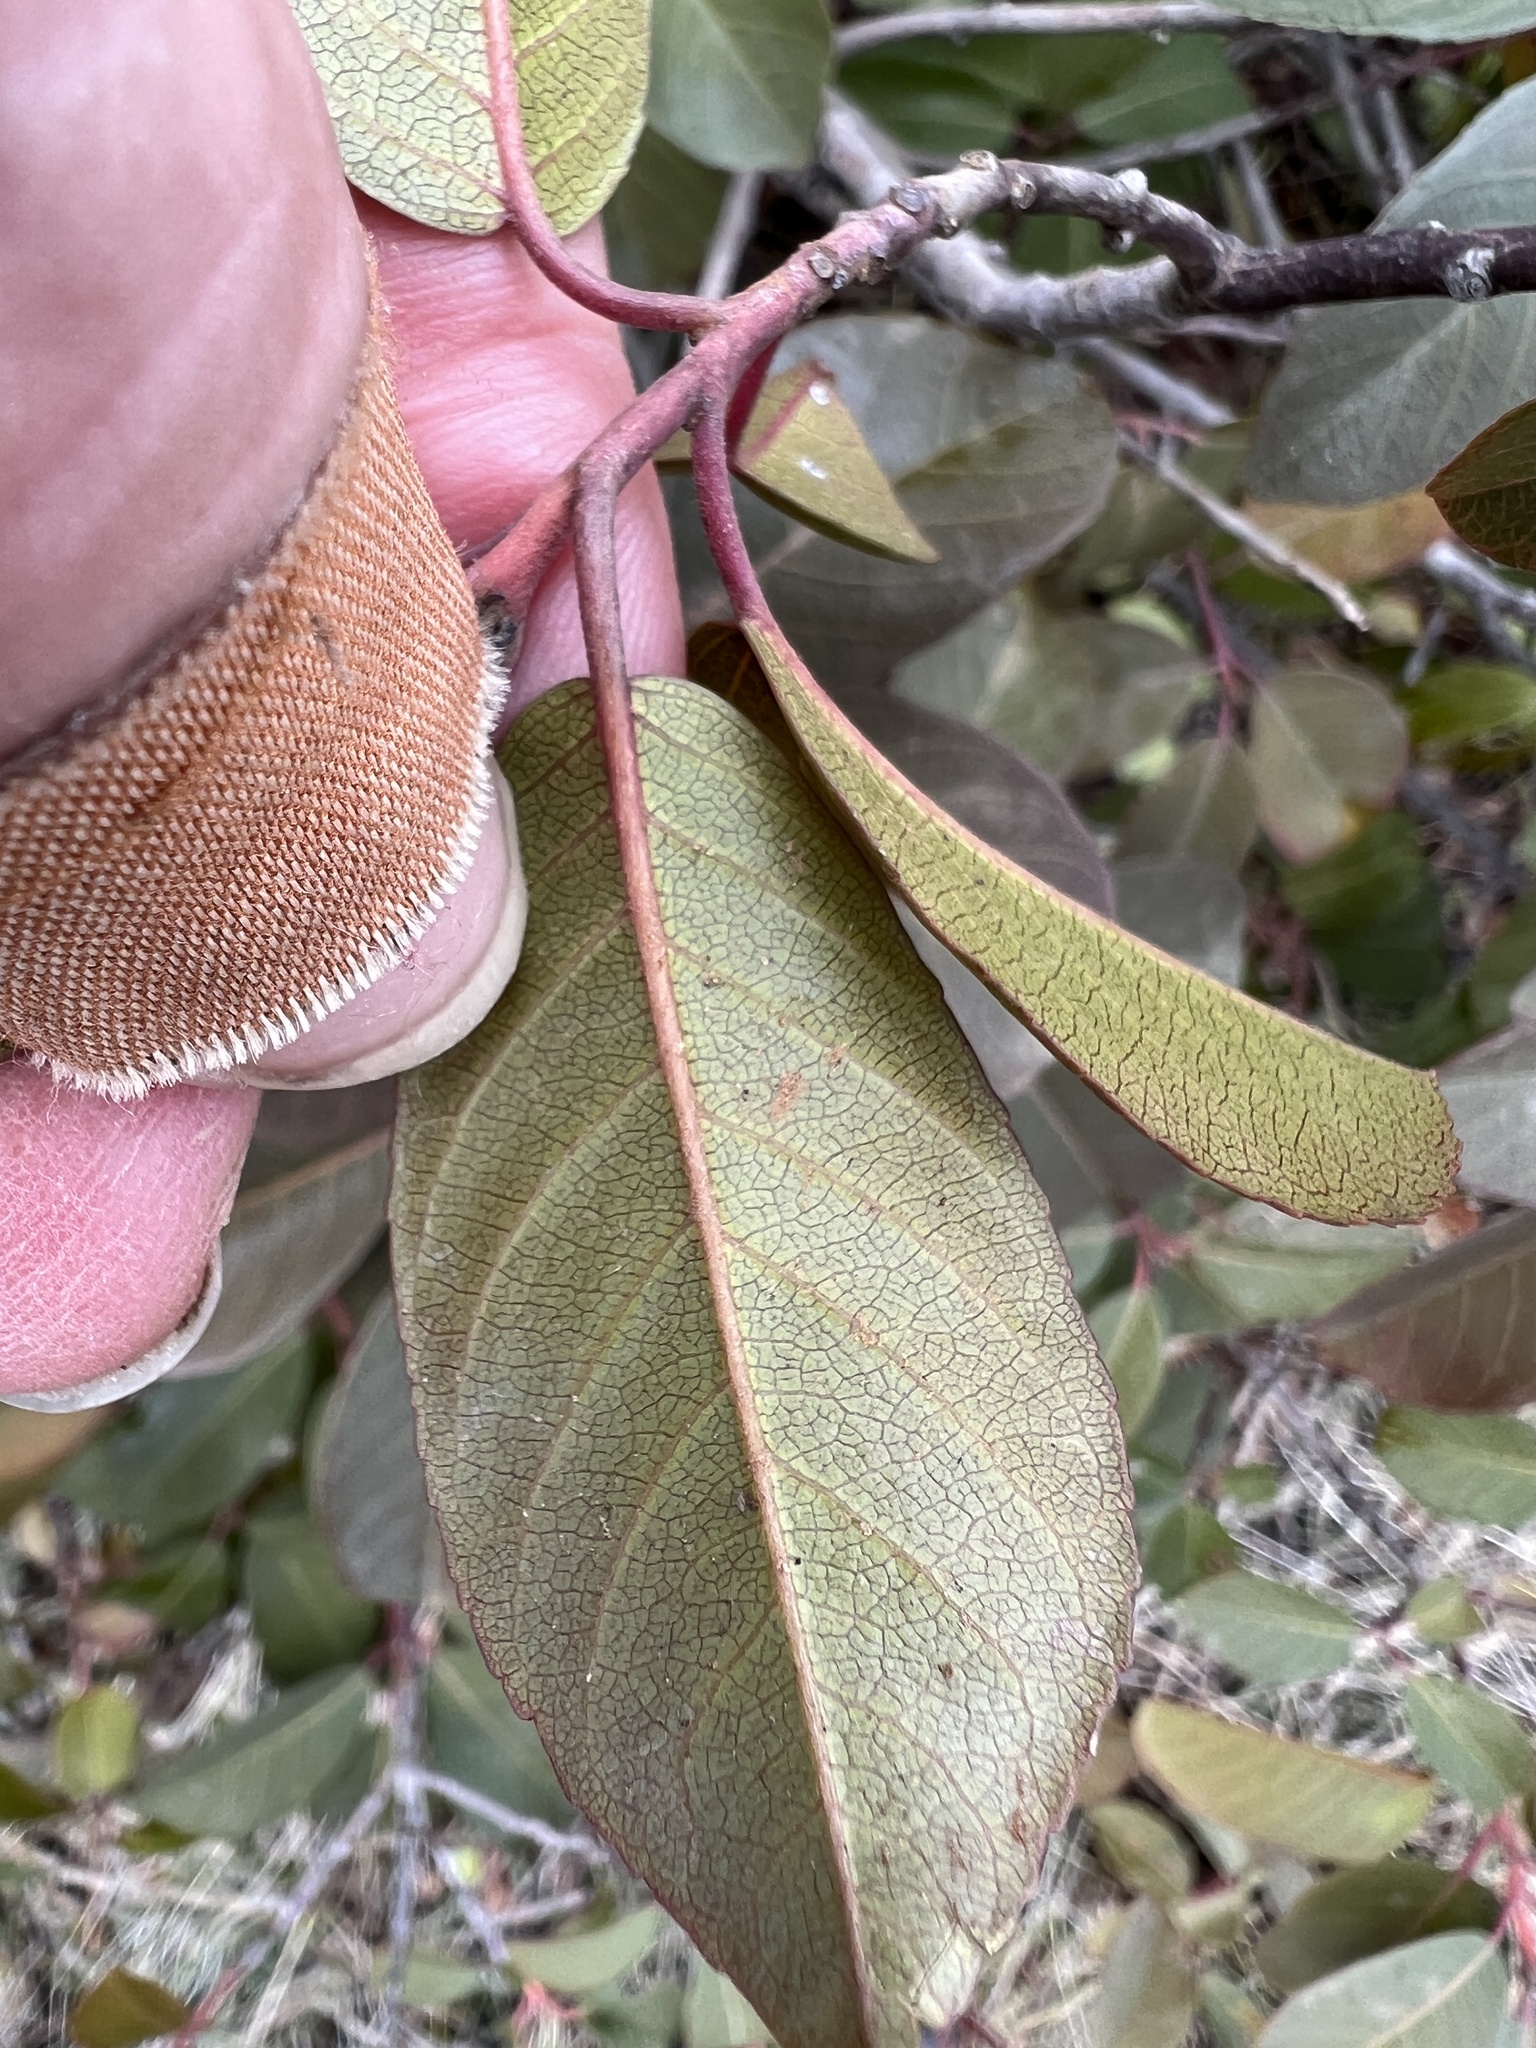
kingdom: Plantae
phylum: Tracheophyta
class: Magnoliopsida
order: Rosales
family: Rhamnaceae
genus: Frangula
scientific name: Frangula californica
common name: California buckthorn
